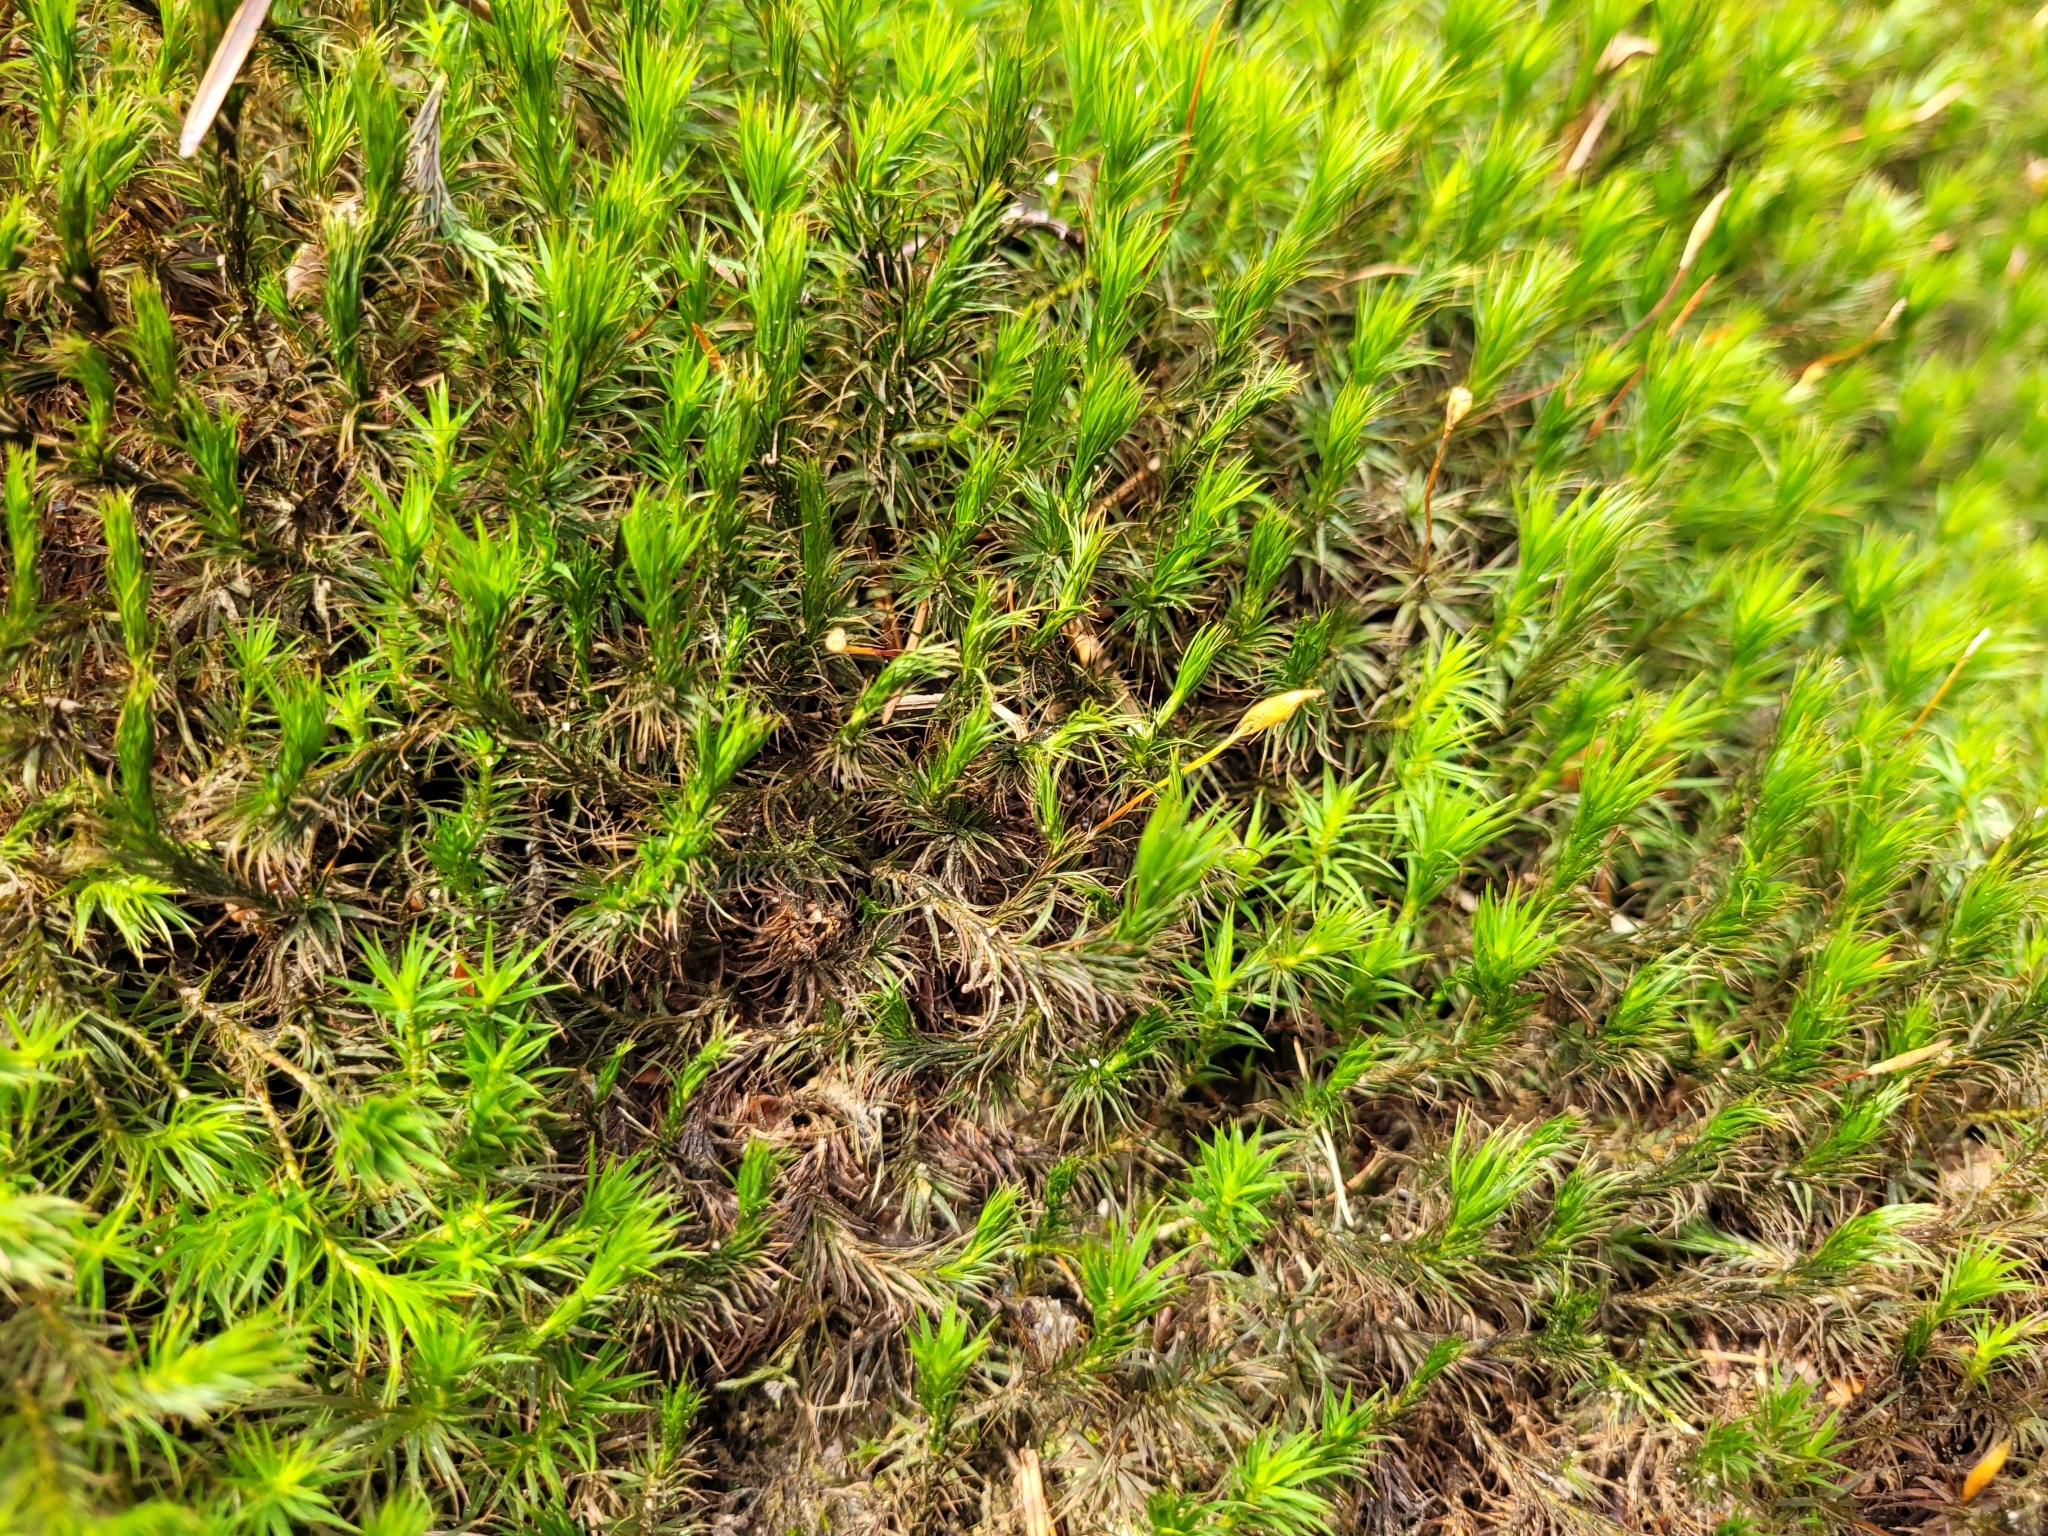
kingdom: Plantae
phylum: Bryophyta
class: Polytrichopsida
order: Polytrichales
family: Polytrichaceae
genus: Polytrichum
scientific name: Polytrichum formosum
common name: Bank haircap moss
